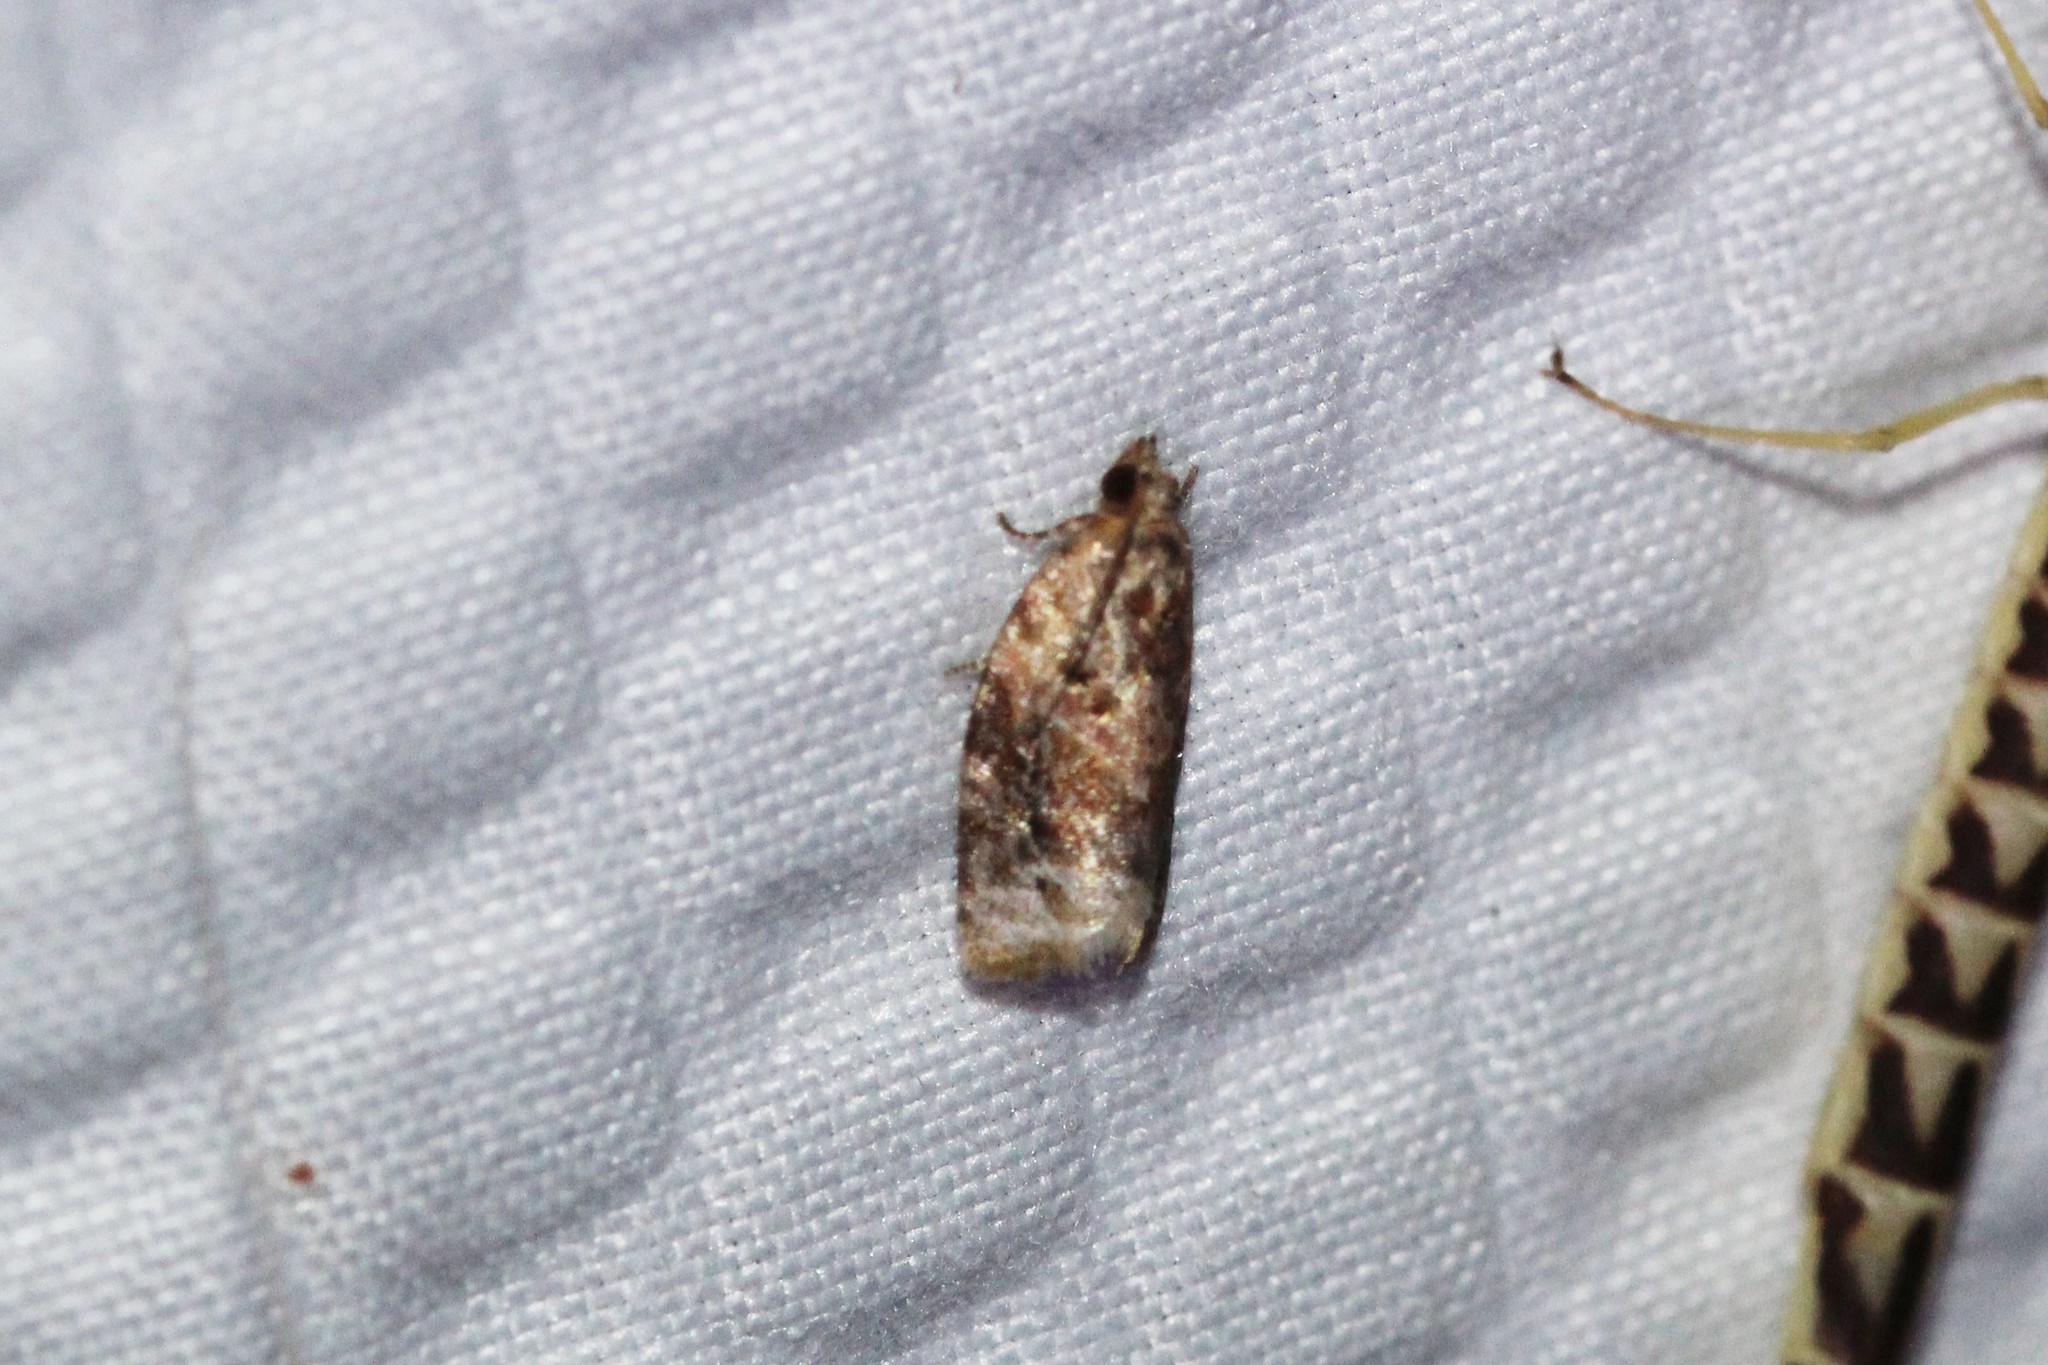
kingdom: Animalia
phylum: Arthropoda
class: Insecta
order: Lepidoptera
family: Tortricidae
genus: Argyrotaenia
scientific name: Argyrotaenia velutinana
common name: Red-banded leafroller moth
